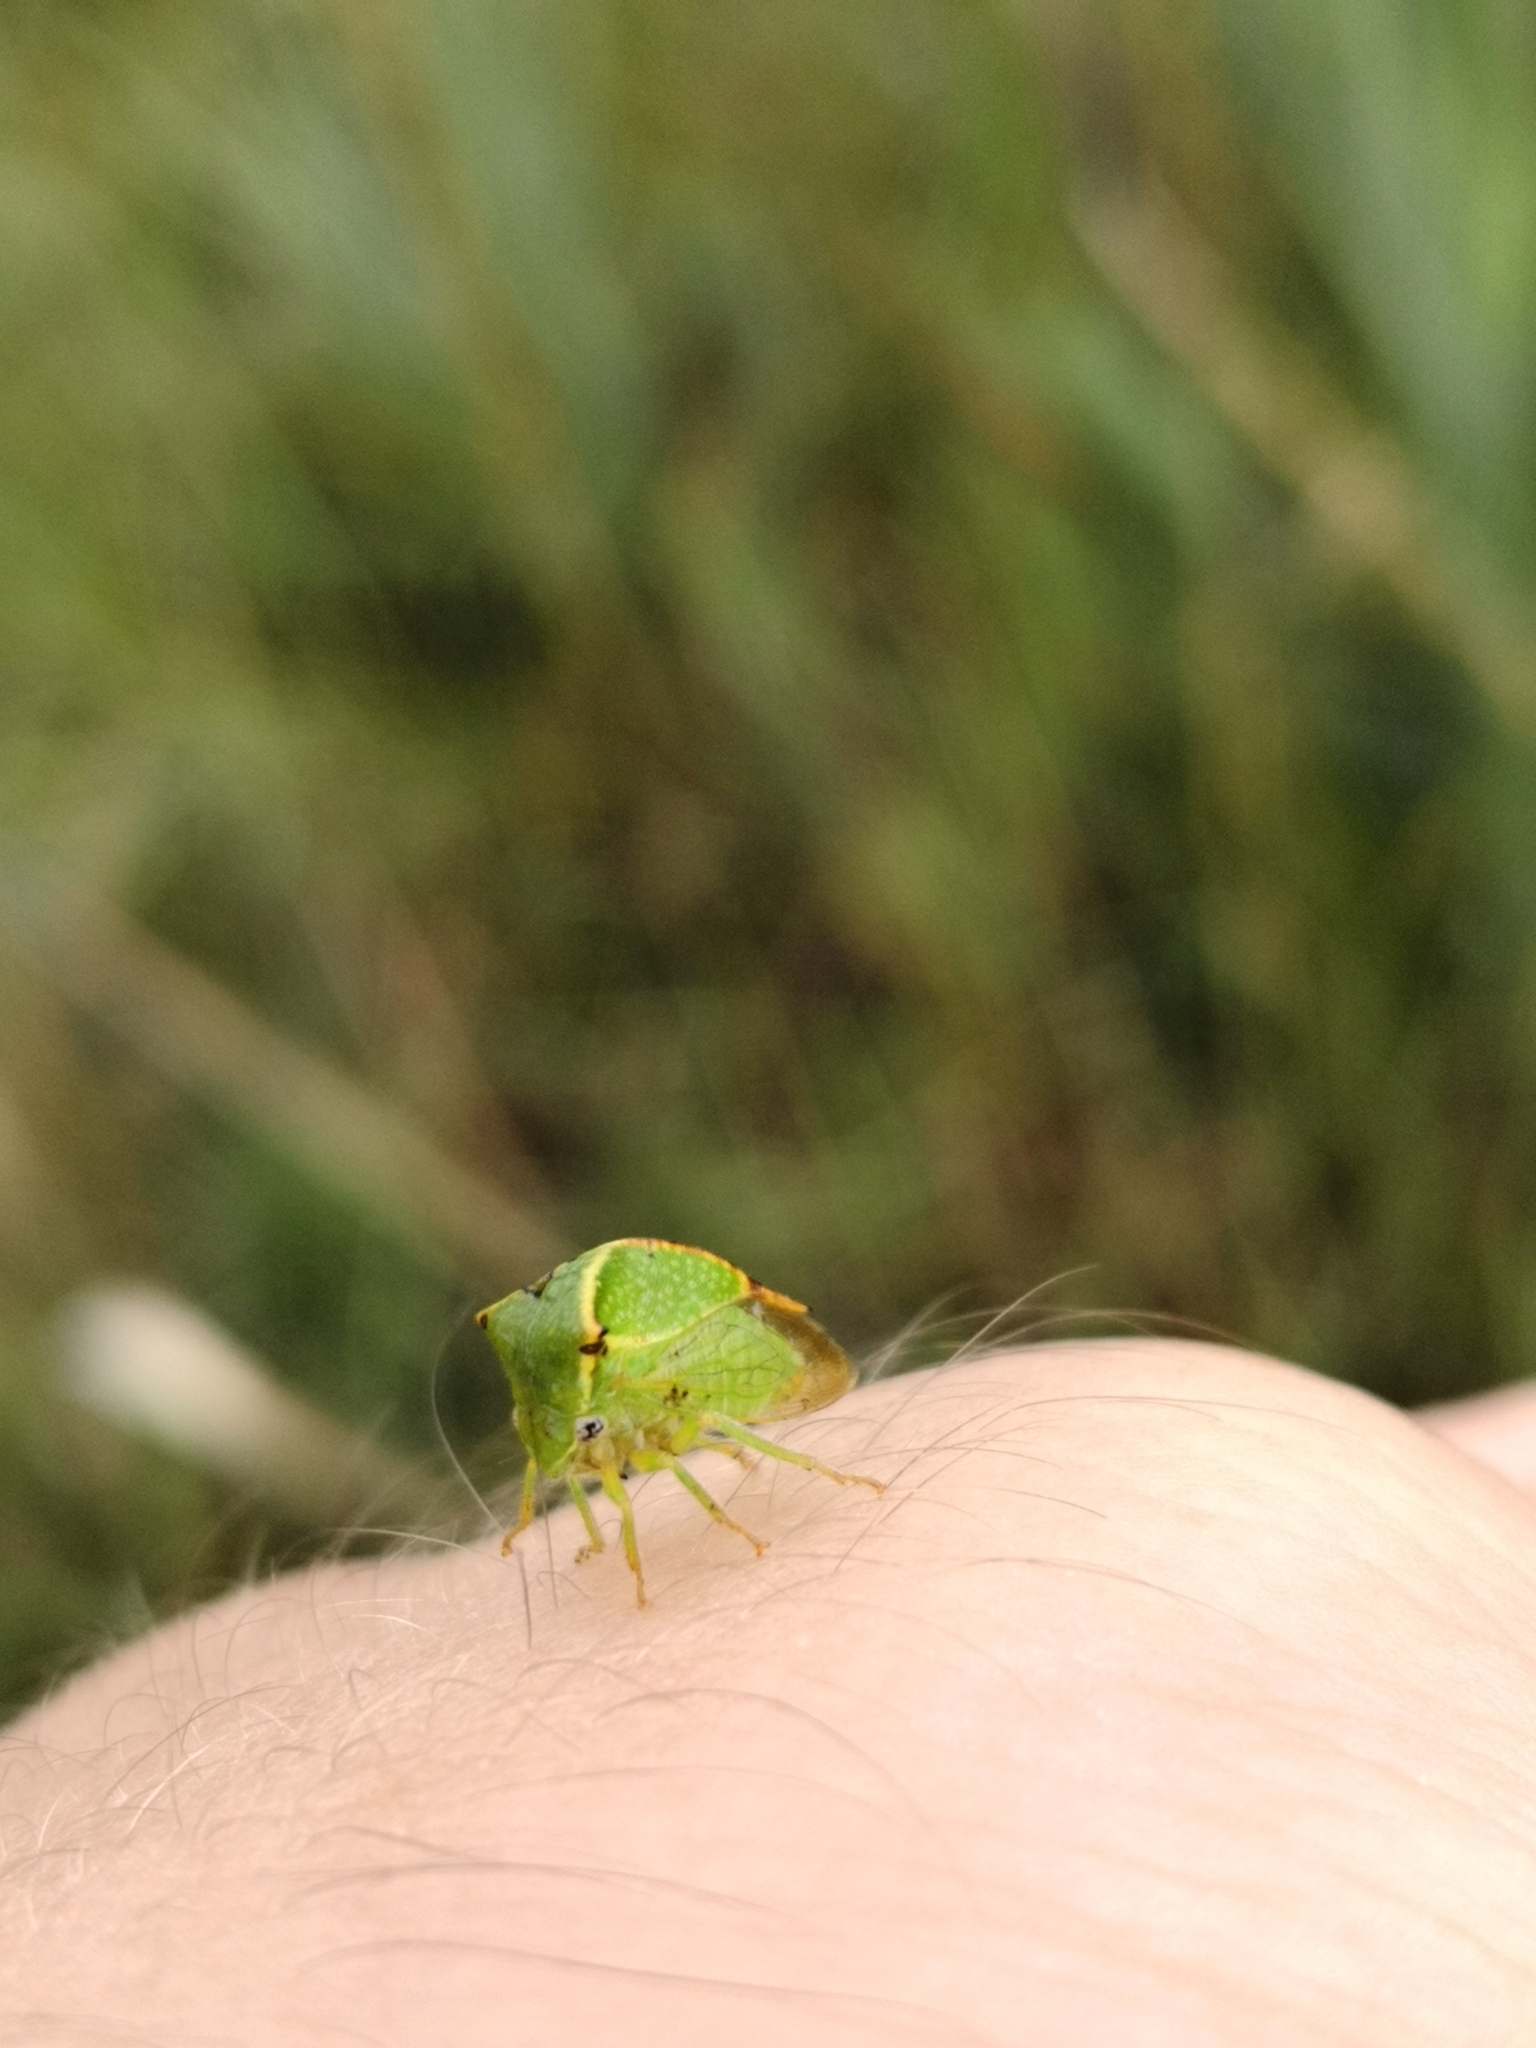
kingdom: Animalia
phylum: Arthropoda
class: Insecta
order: Hemiptera
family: Membracidae
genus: Stictocephala
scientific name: Stictocephala bisonia
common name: American buffalo treehopper
